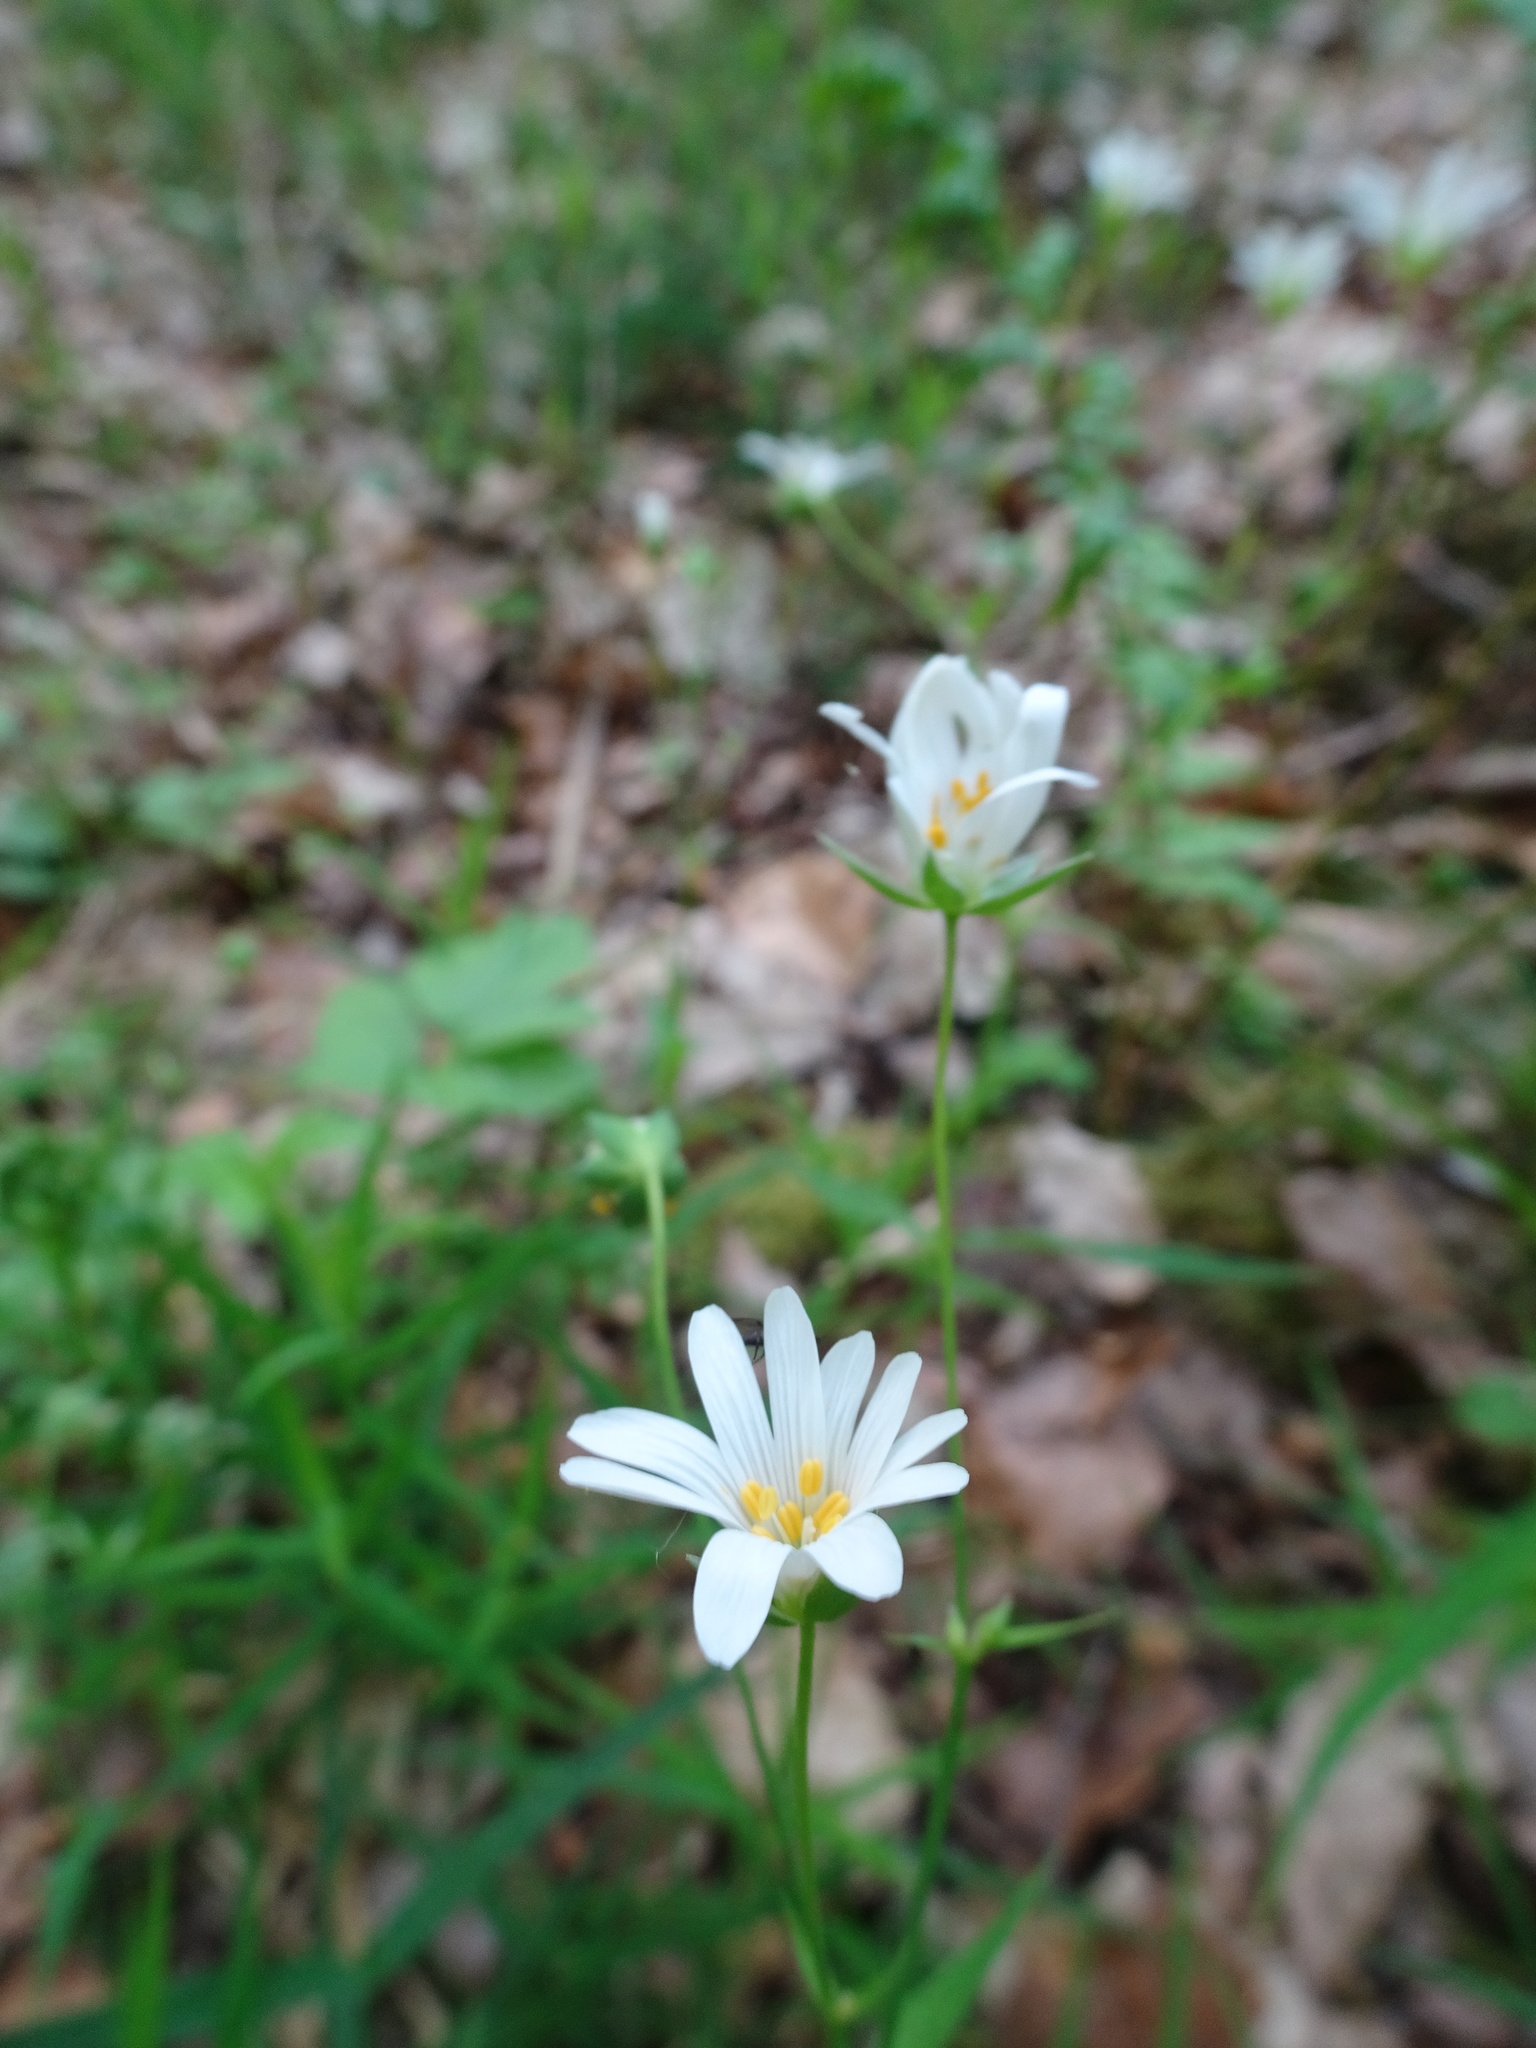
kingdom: Plantae
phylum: Tracheophyta
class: Magnoliopsida
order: Caryophyllales
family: Caryophyllaceae
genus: Rabelera
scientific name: Rabelera holostea
